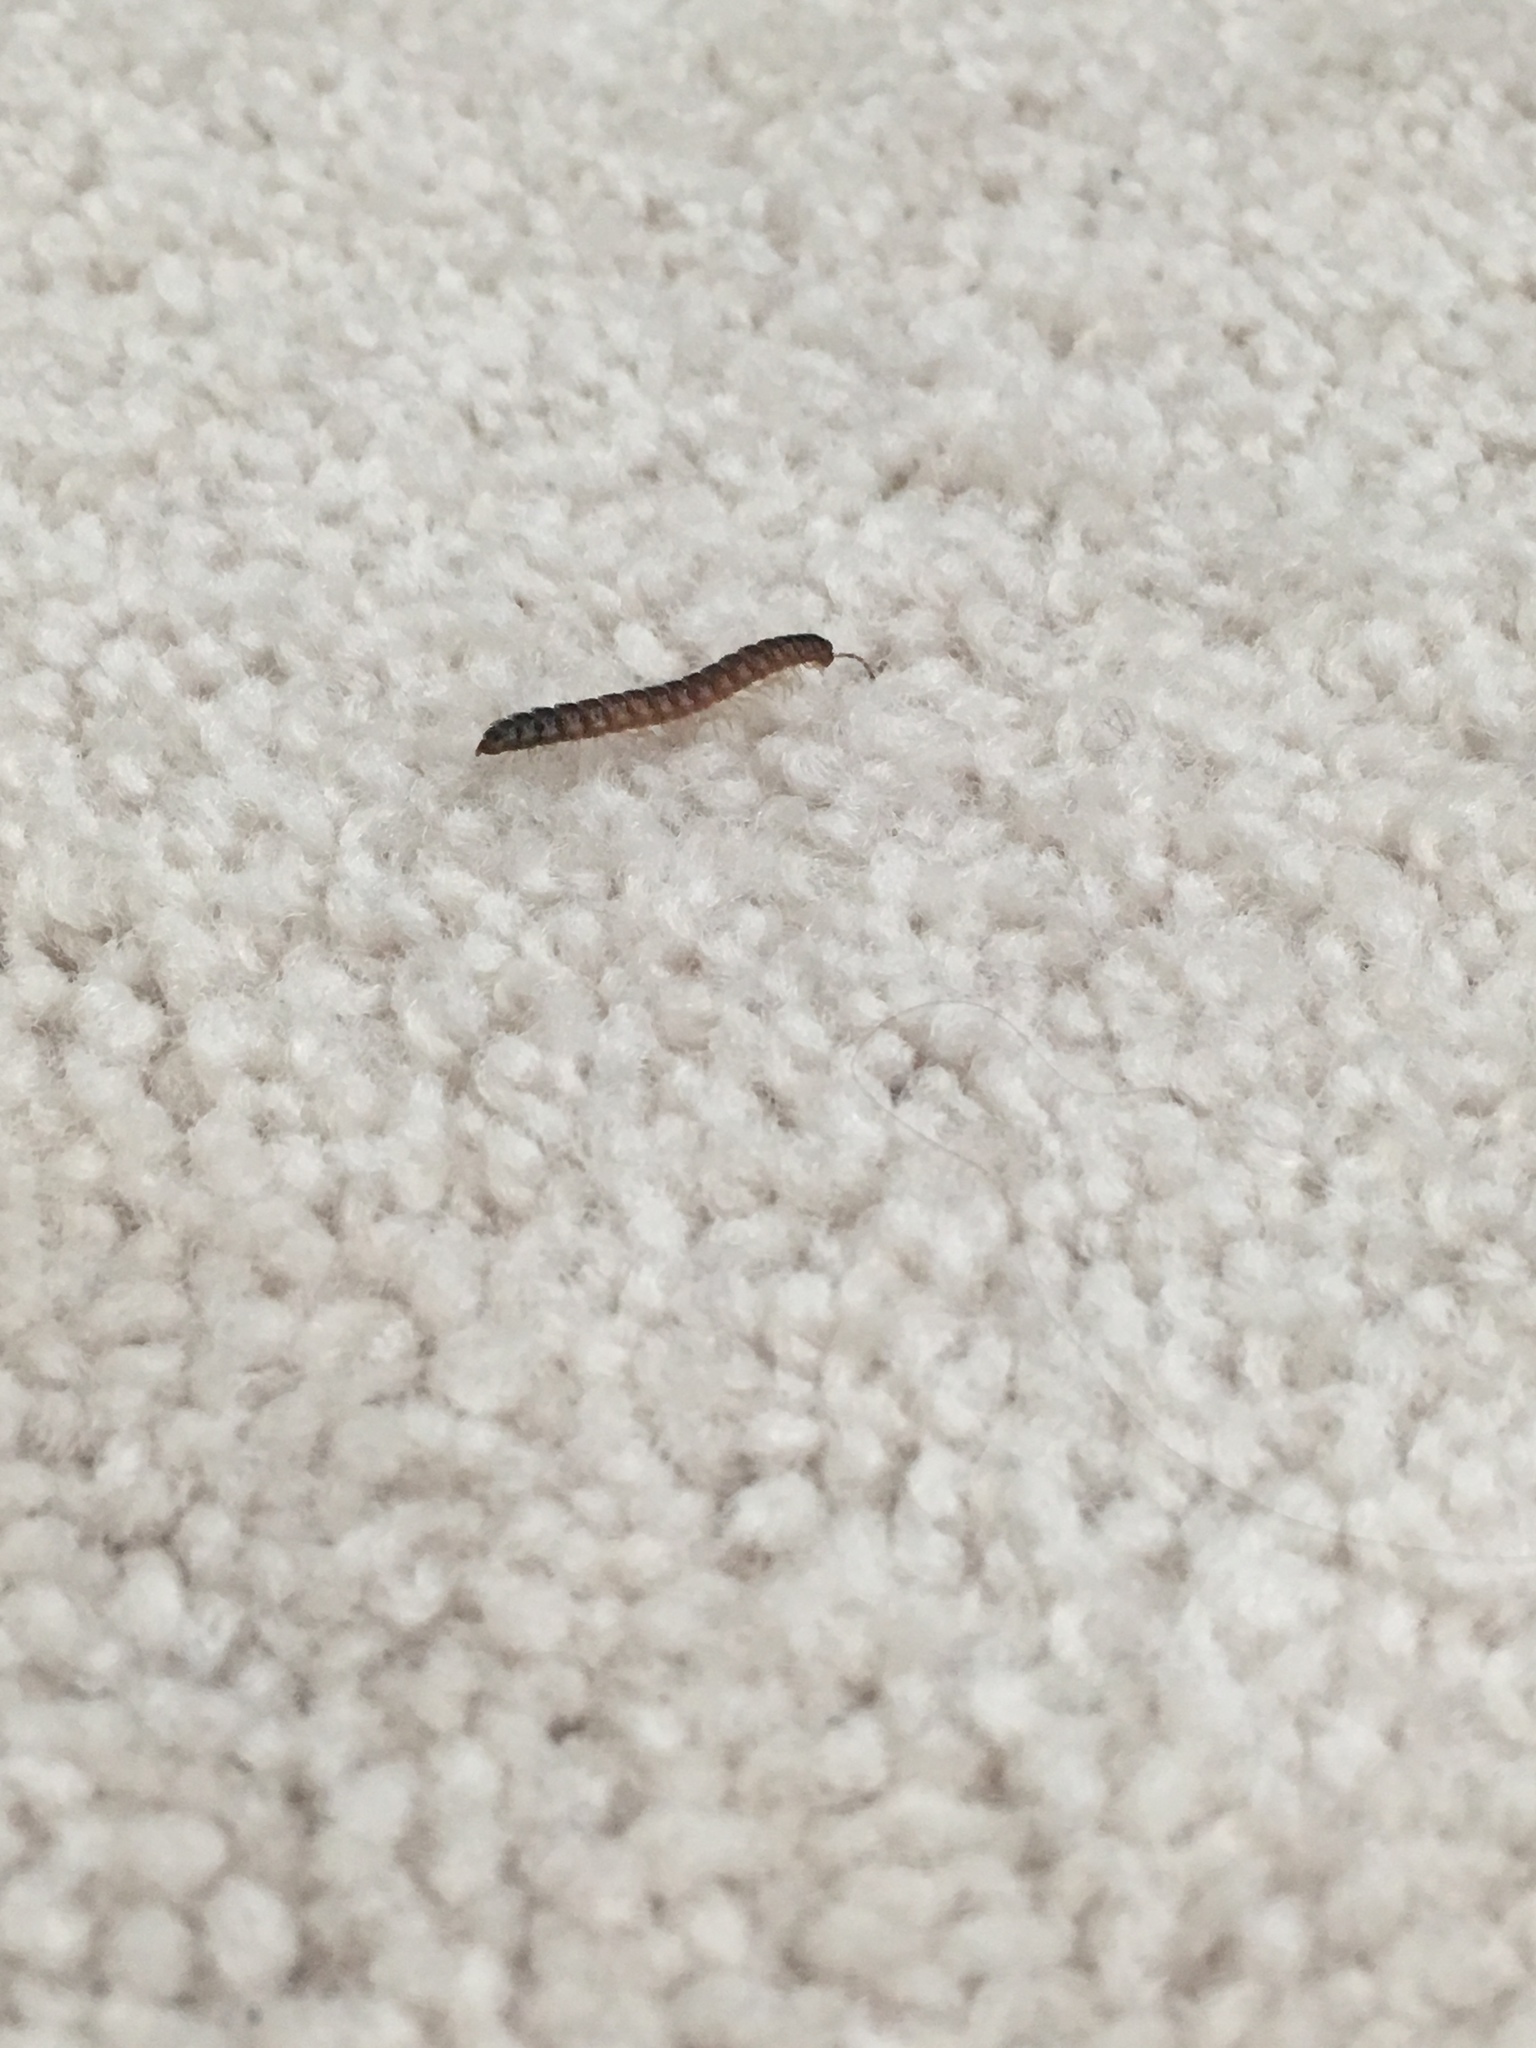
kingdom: Animalia
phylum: Arthropoda
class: Diplopoda
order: Polydesmida
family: Paradoxosomatidae
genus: Oxidus
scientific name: Oxidus gracilis
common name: Greenhouse millipede
